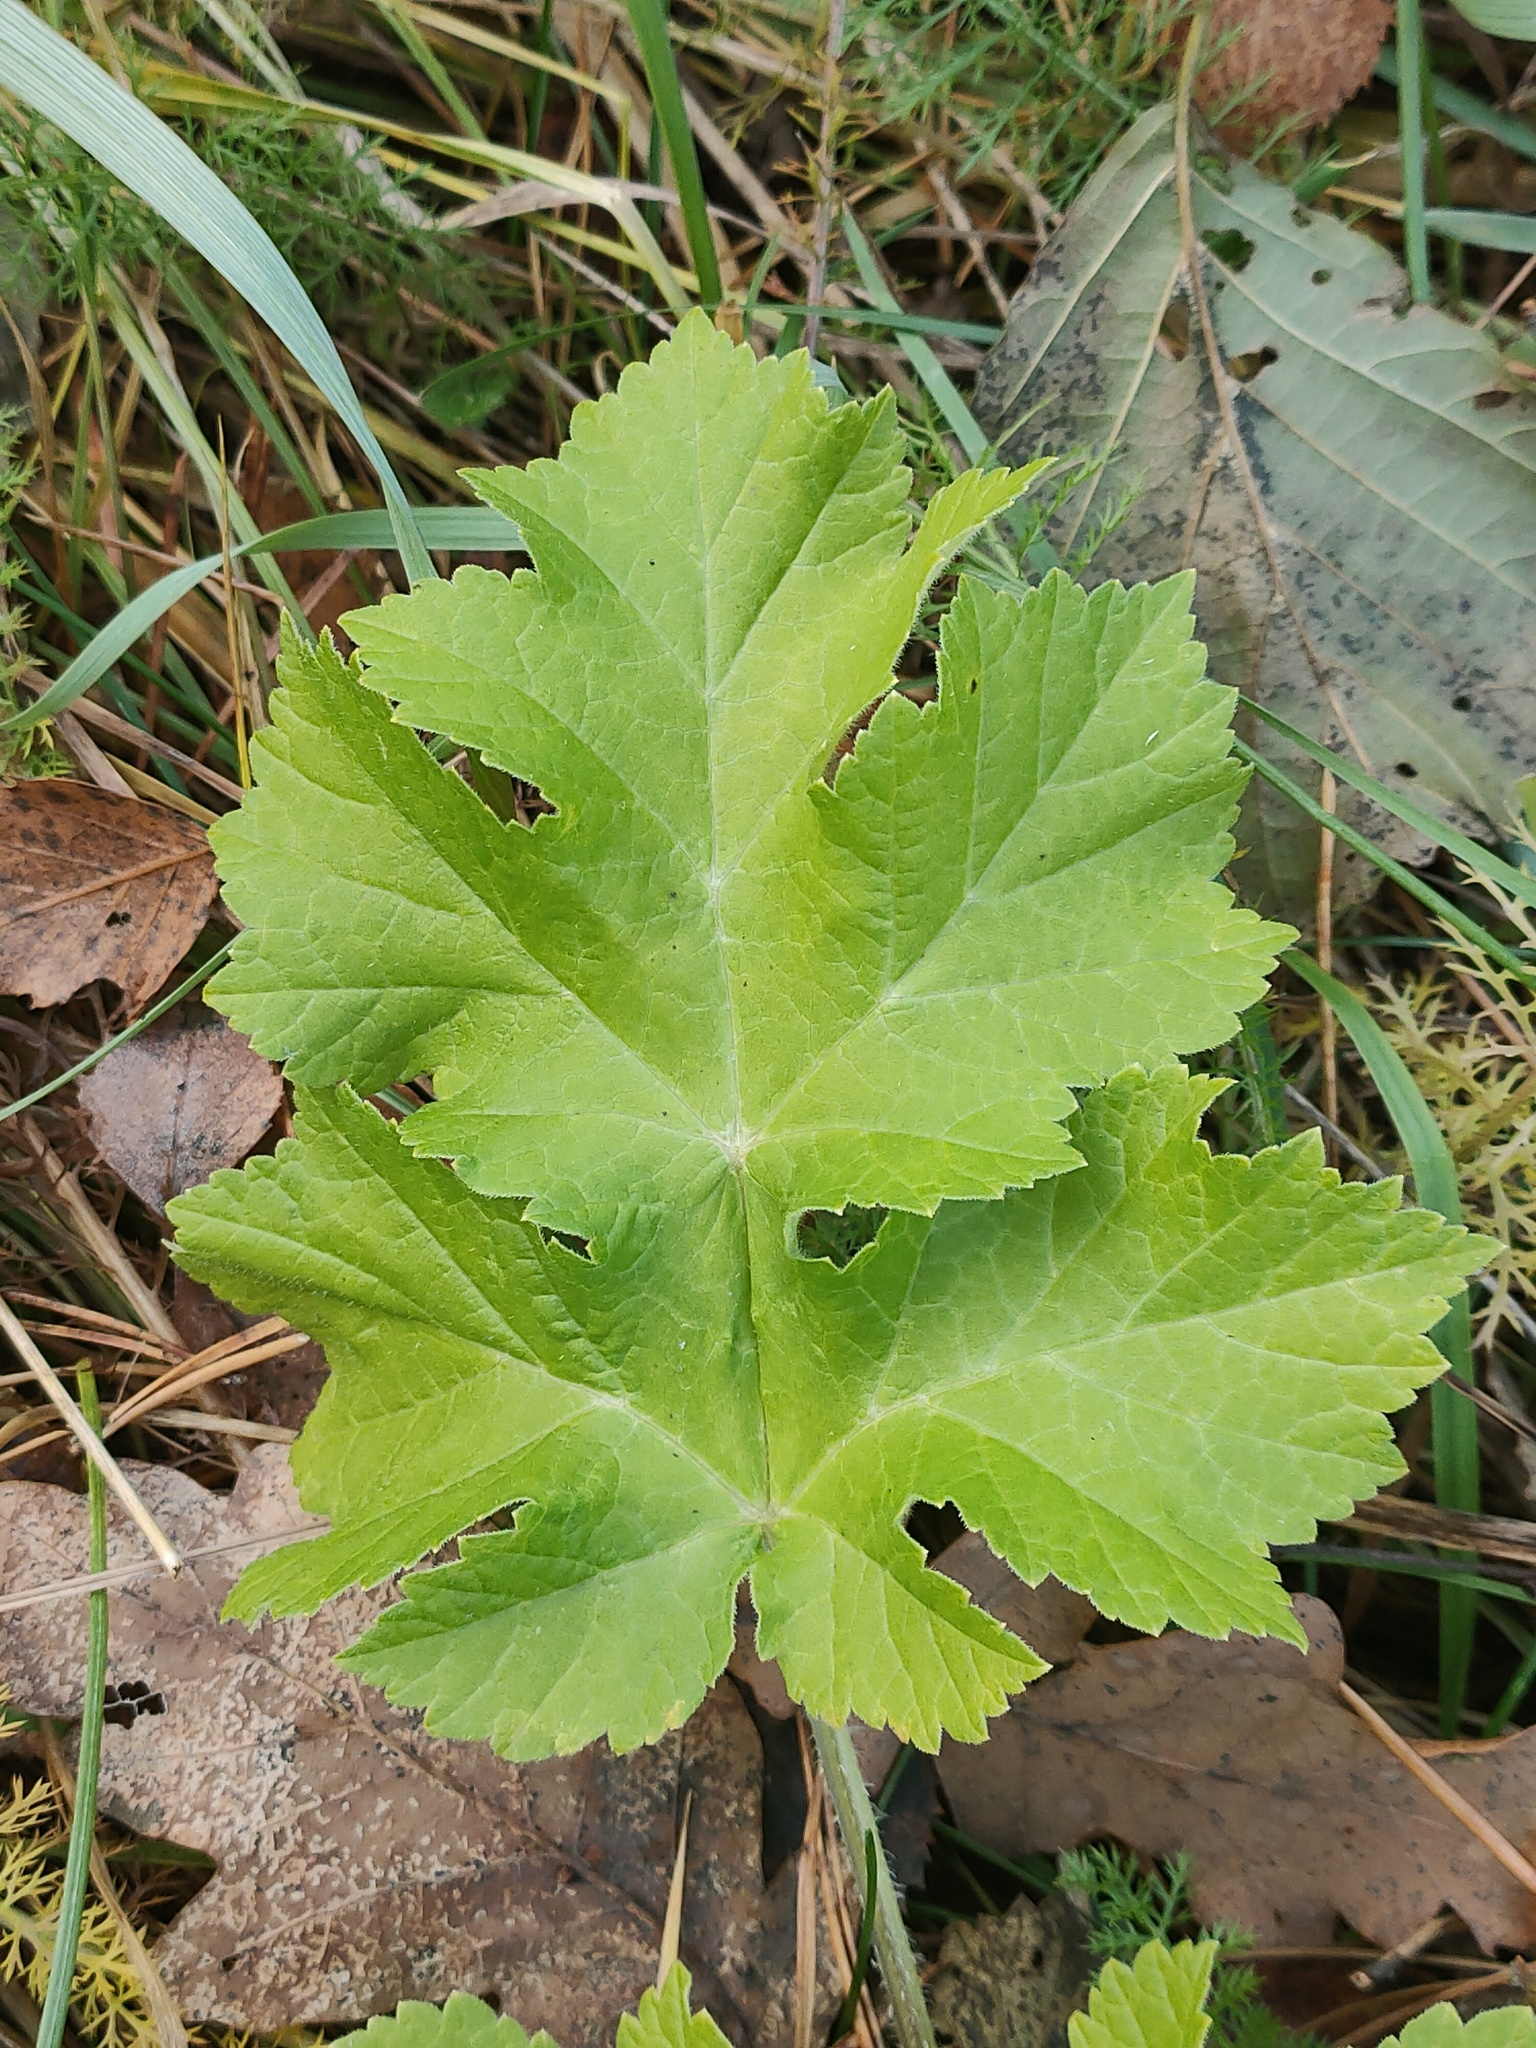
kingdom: Plantae
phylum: Tracheophyta
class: Magnoliopsida
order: Apiales
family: Apiaceae
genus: Heracleum
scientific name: Heracleum sosnowskyi
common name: Sosnowsky's hogweed
